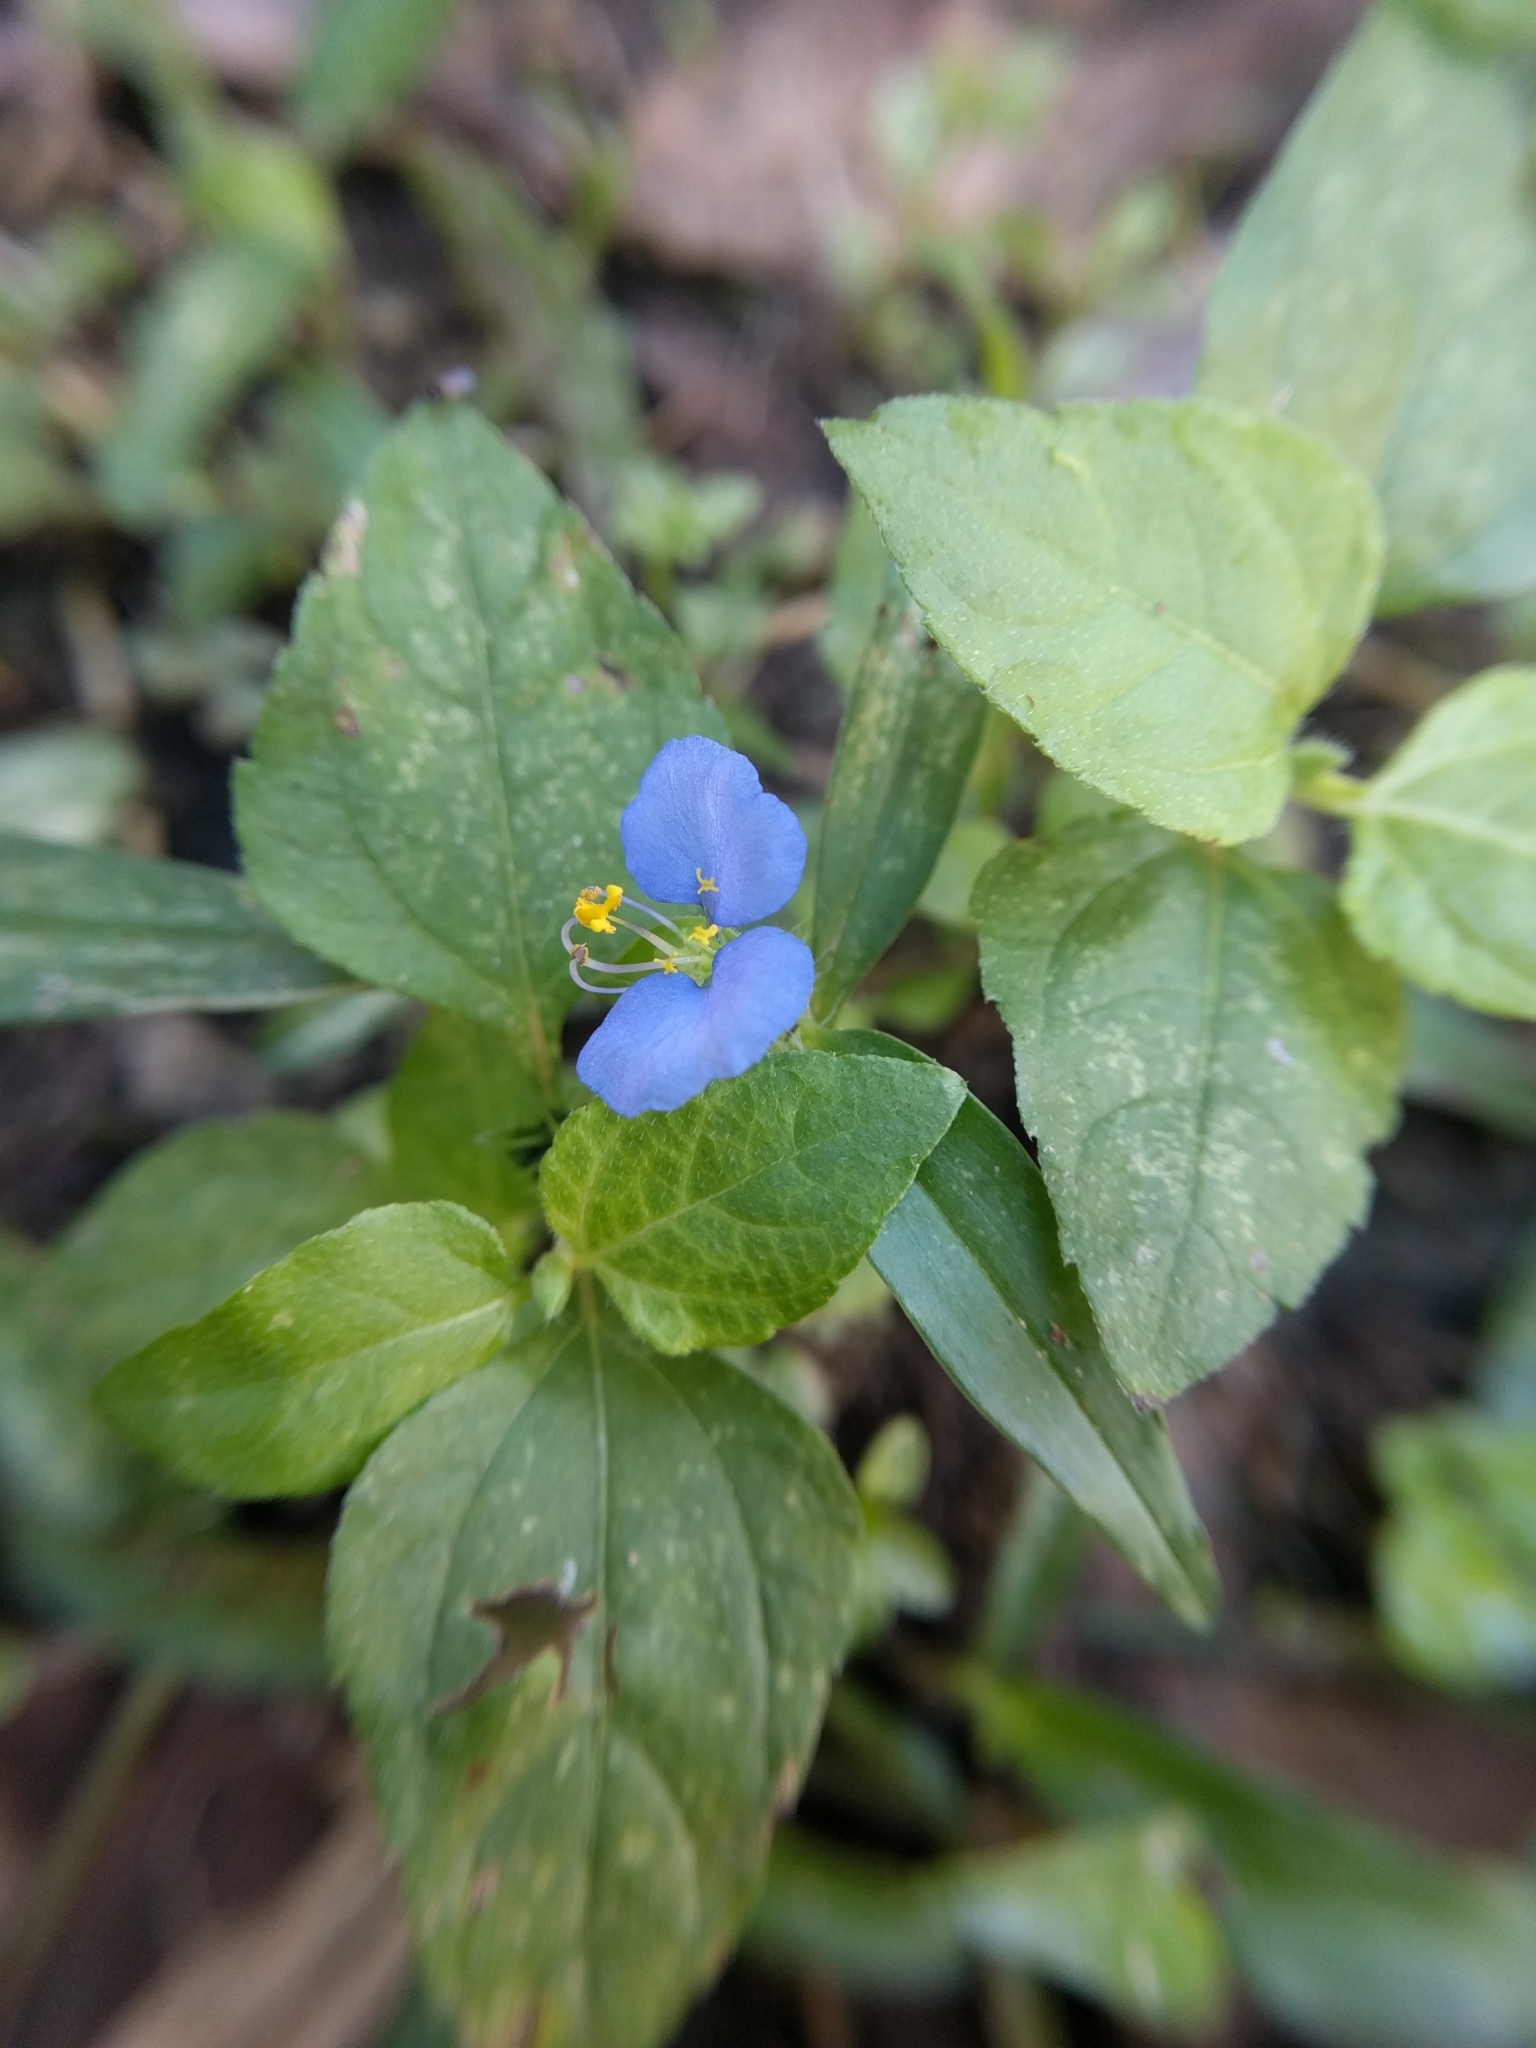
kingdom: Plantae
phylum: Tracheophyta
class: Liliopsida
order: Commelinales
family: Commelinaceae
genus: Commelina
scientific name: Commelina erecta
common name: Blousel blommetjie
